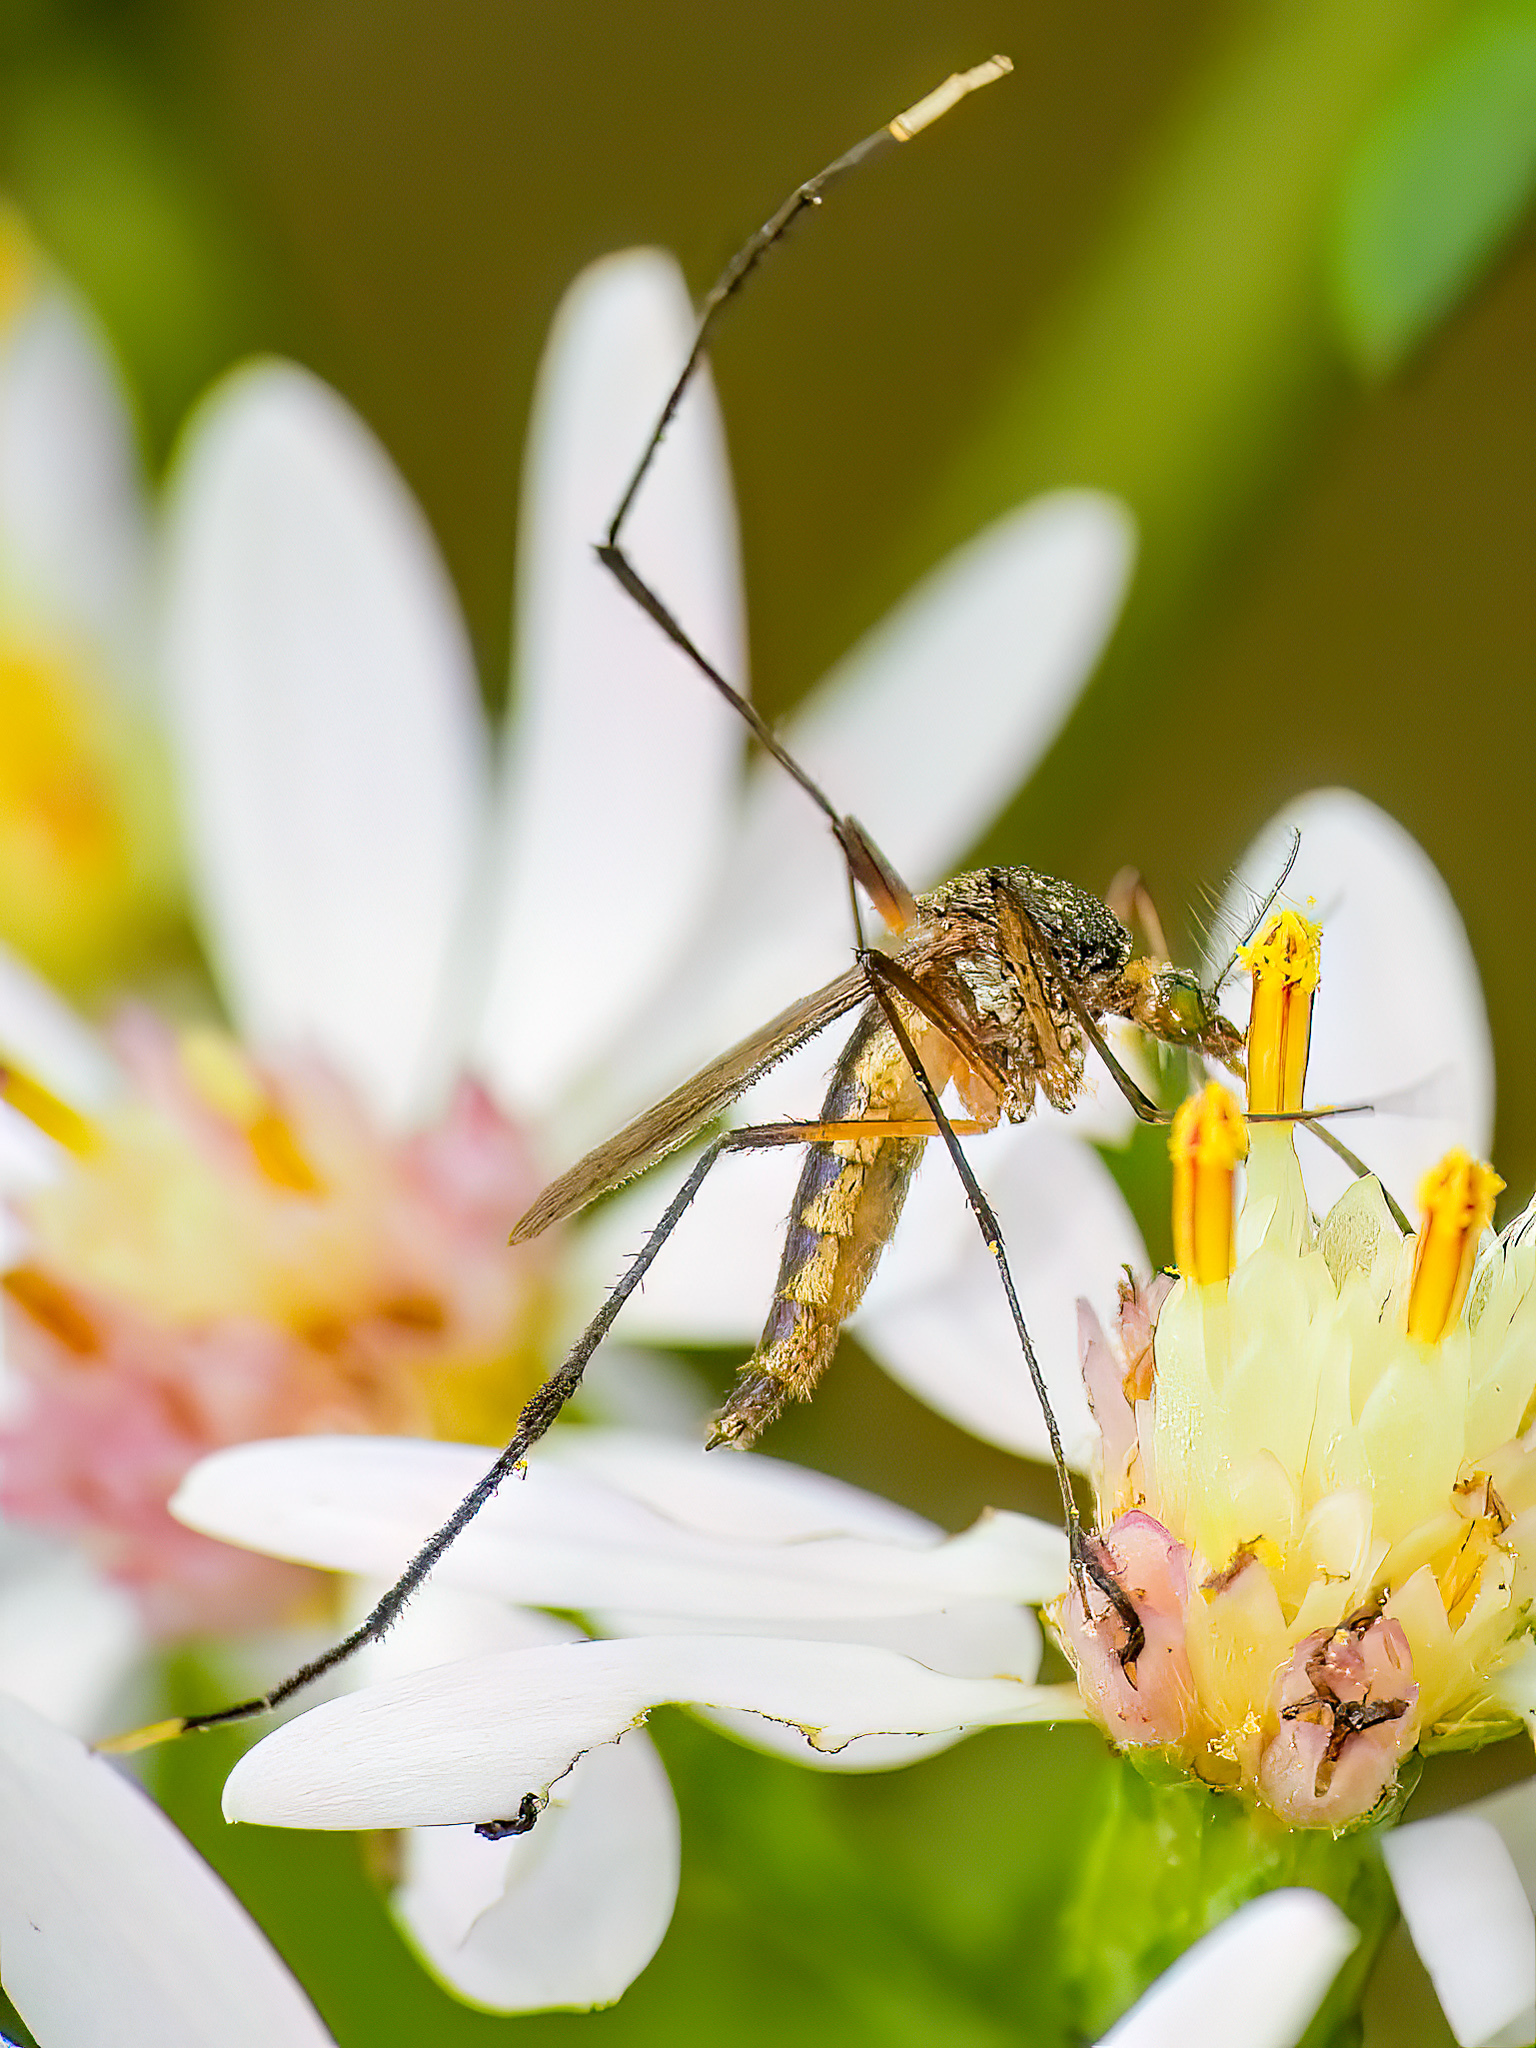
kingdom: Animalia
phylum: Arthropoda
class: Insecta
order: Diptera
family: Culicidae
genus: Psorophora
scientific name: Psorophora ferox
